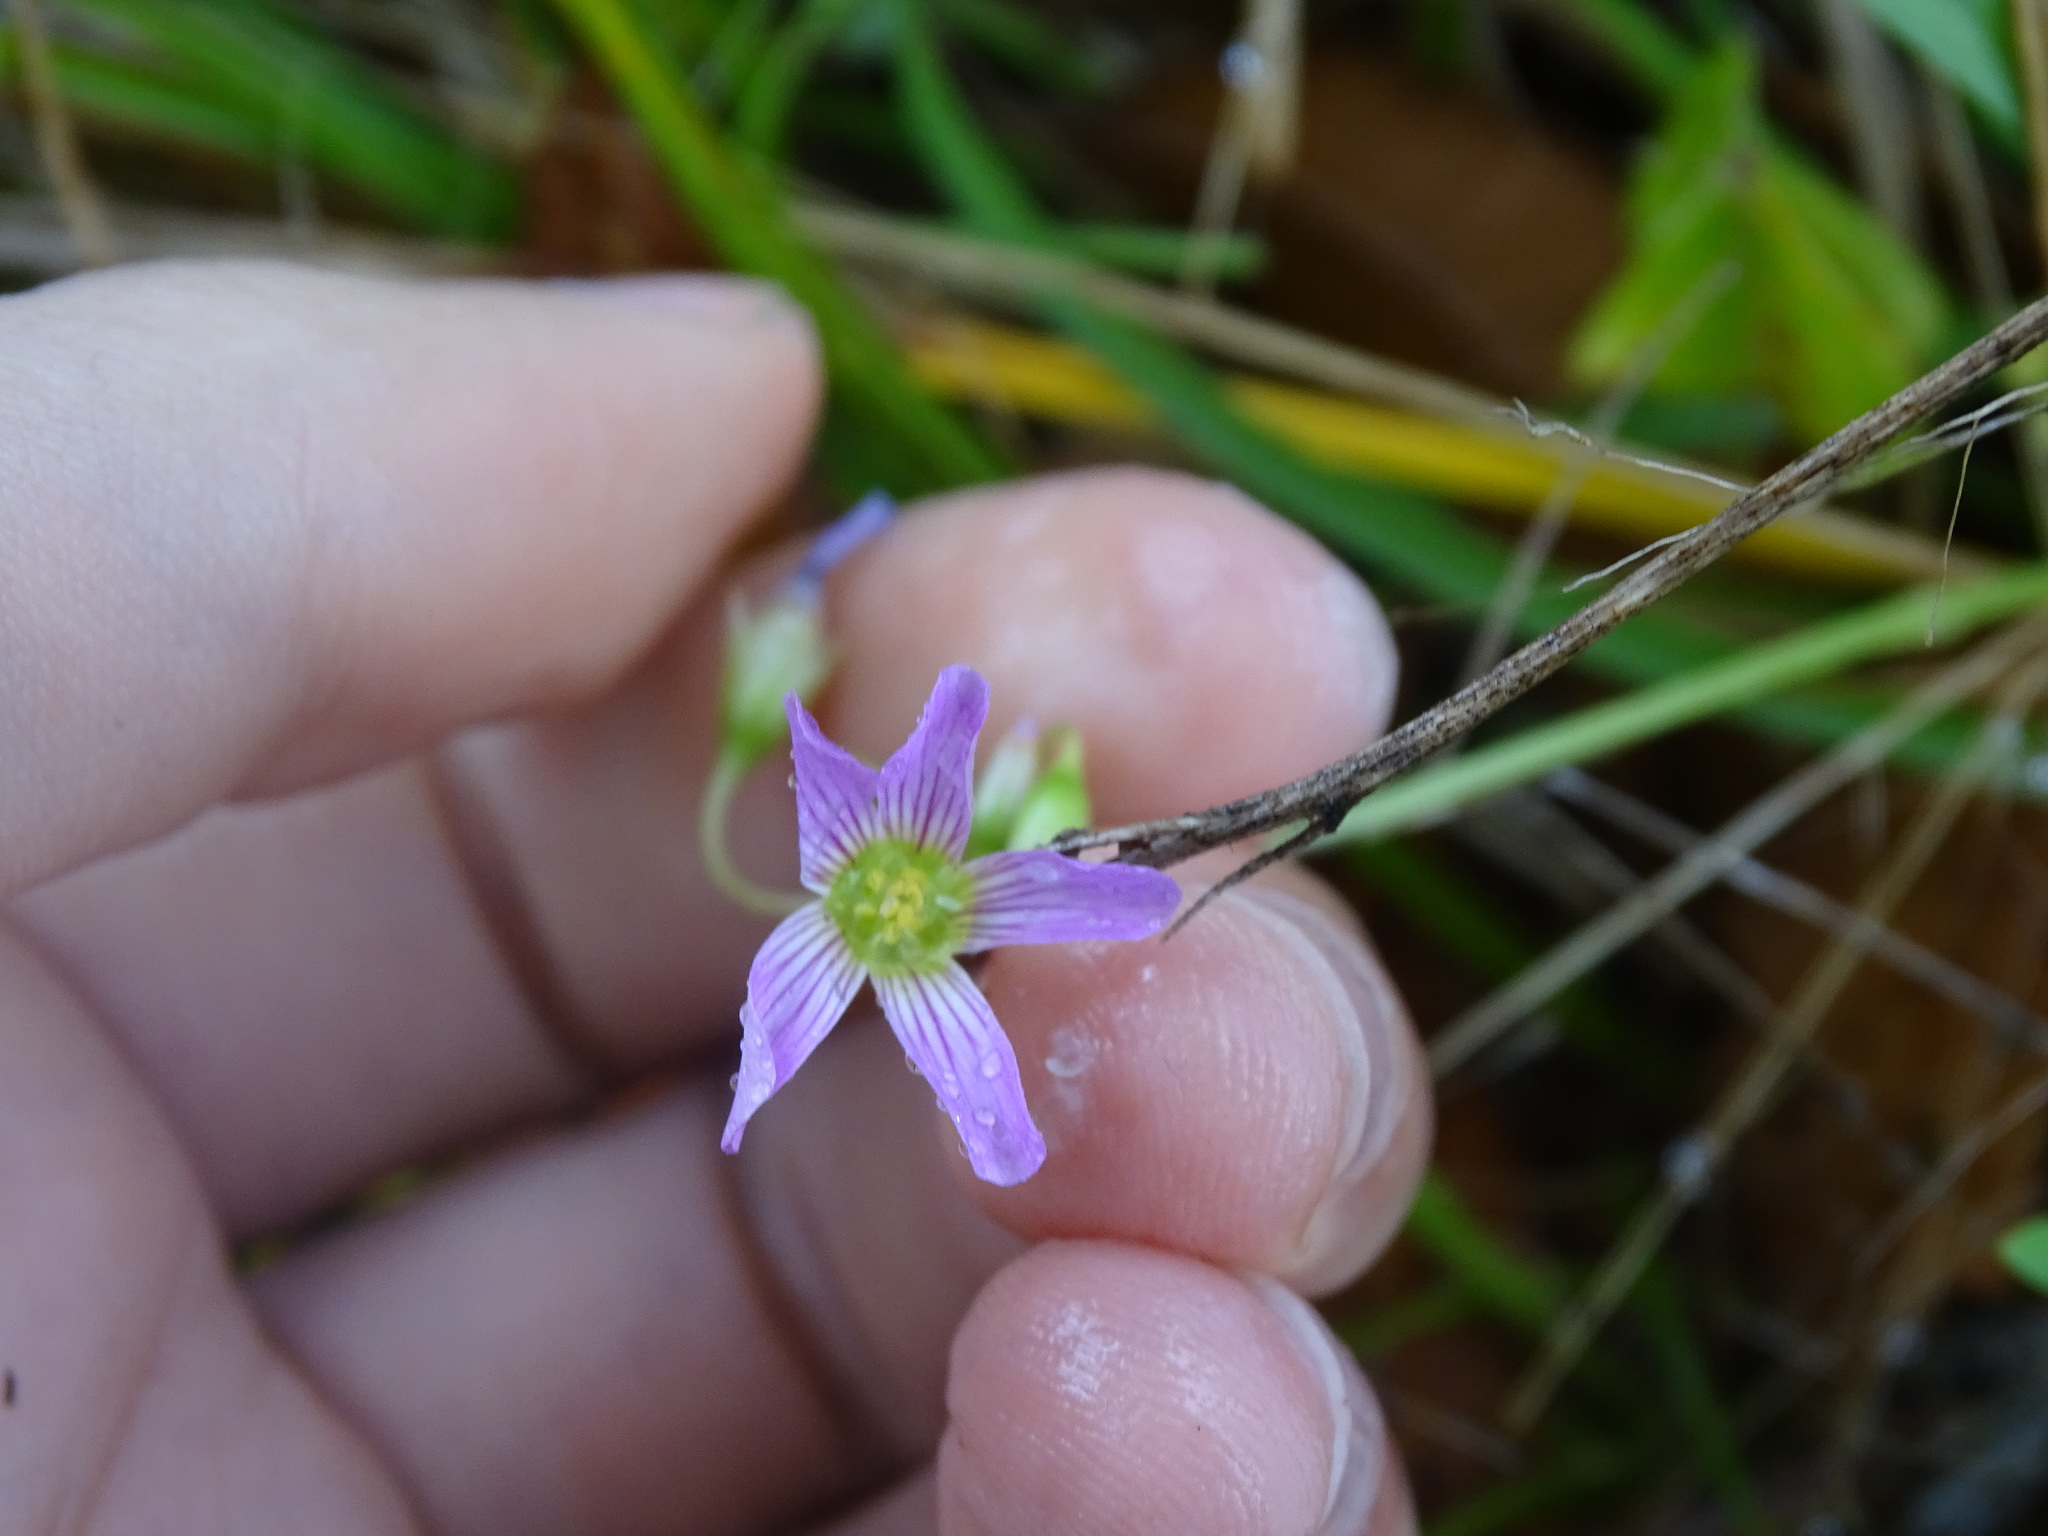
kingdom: Plantae
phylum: Tracheophyta
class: Magnoliopsida
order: Oxalidales
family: Oxalidaceae
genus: Oxalis
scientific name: Oxalis debilis
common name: Large-flowered pink-sorrel
